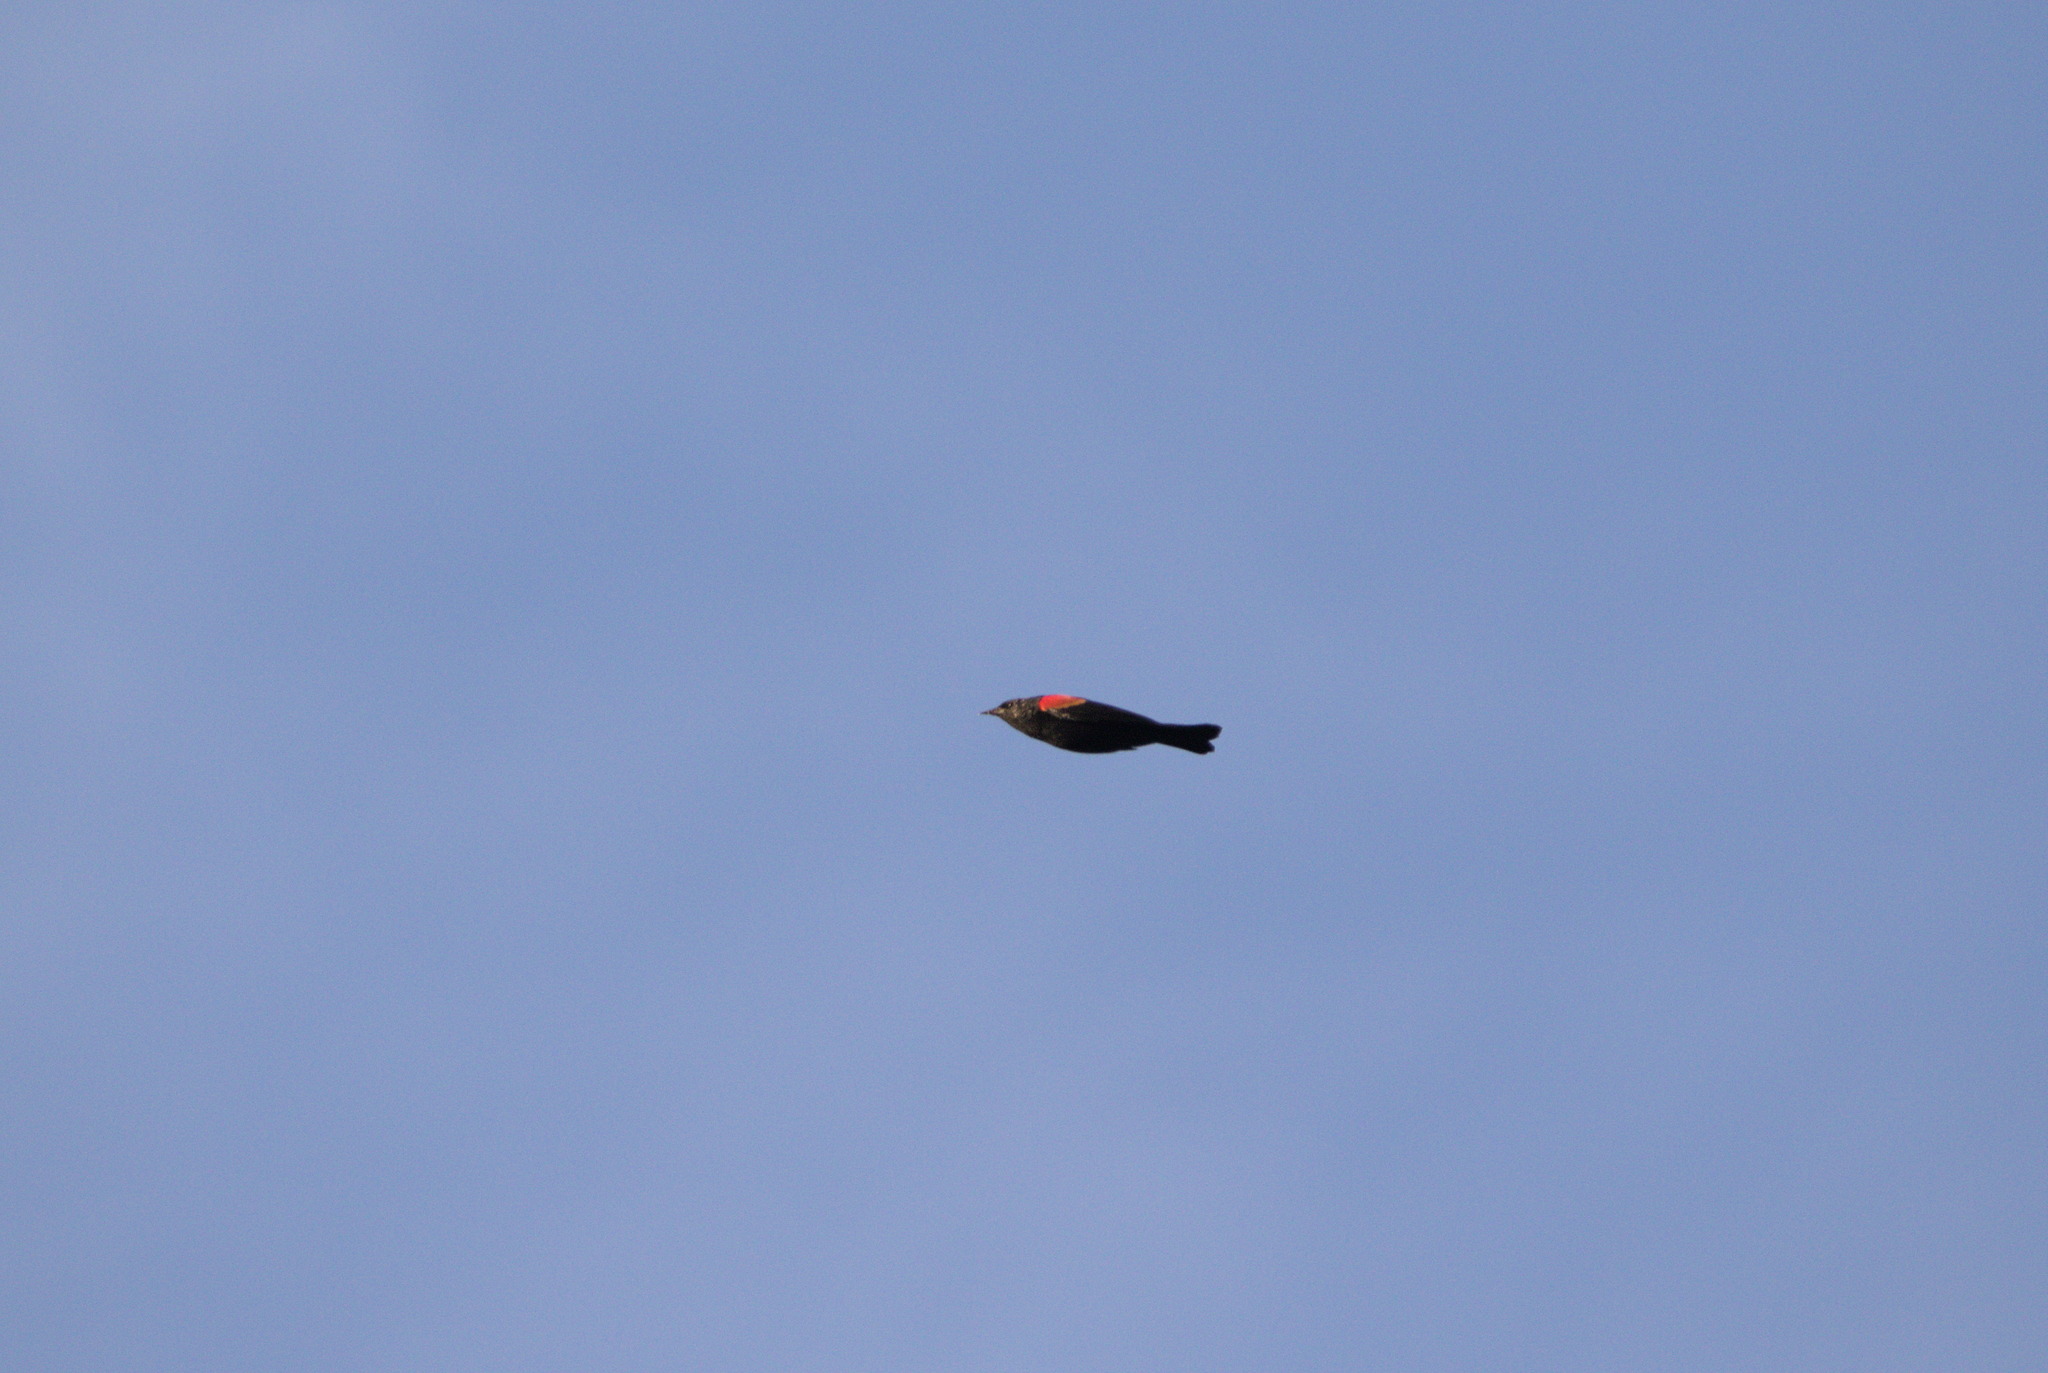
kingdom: Animalia
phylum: Chordata
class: Aves
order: Passeriformes
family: Icteridae
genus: Agelaius
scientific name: Agelaius phoeniceus
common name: Red-winged blackbird
